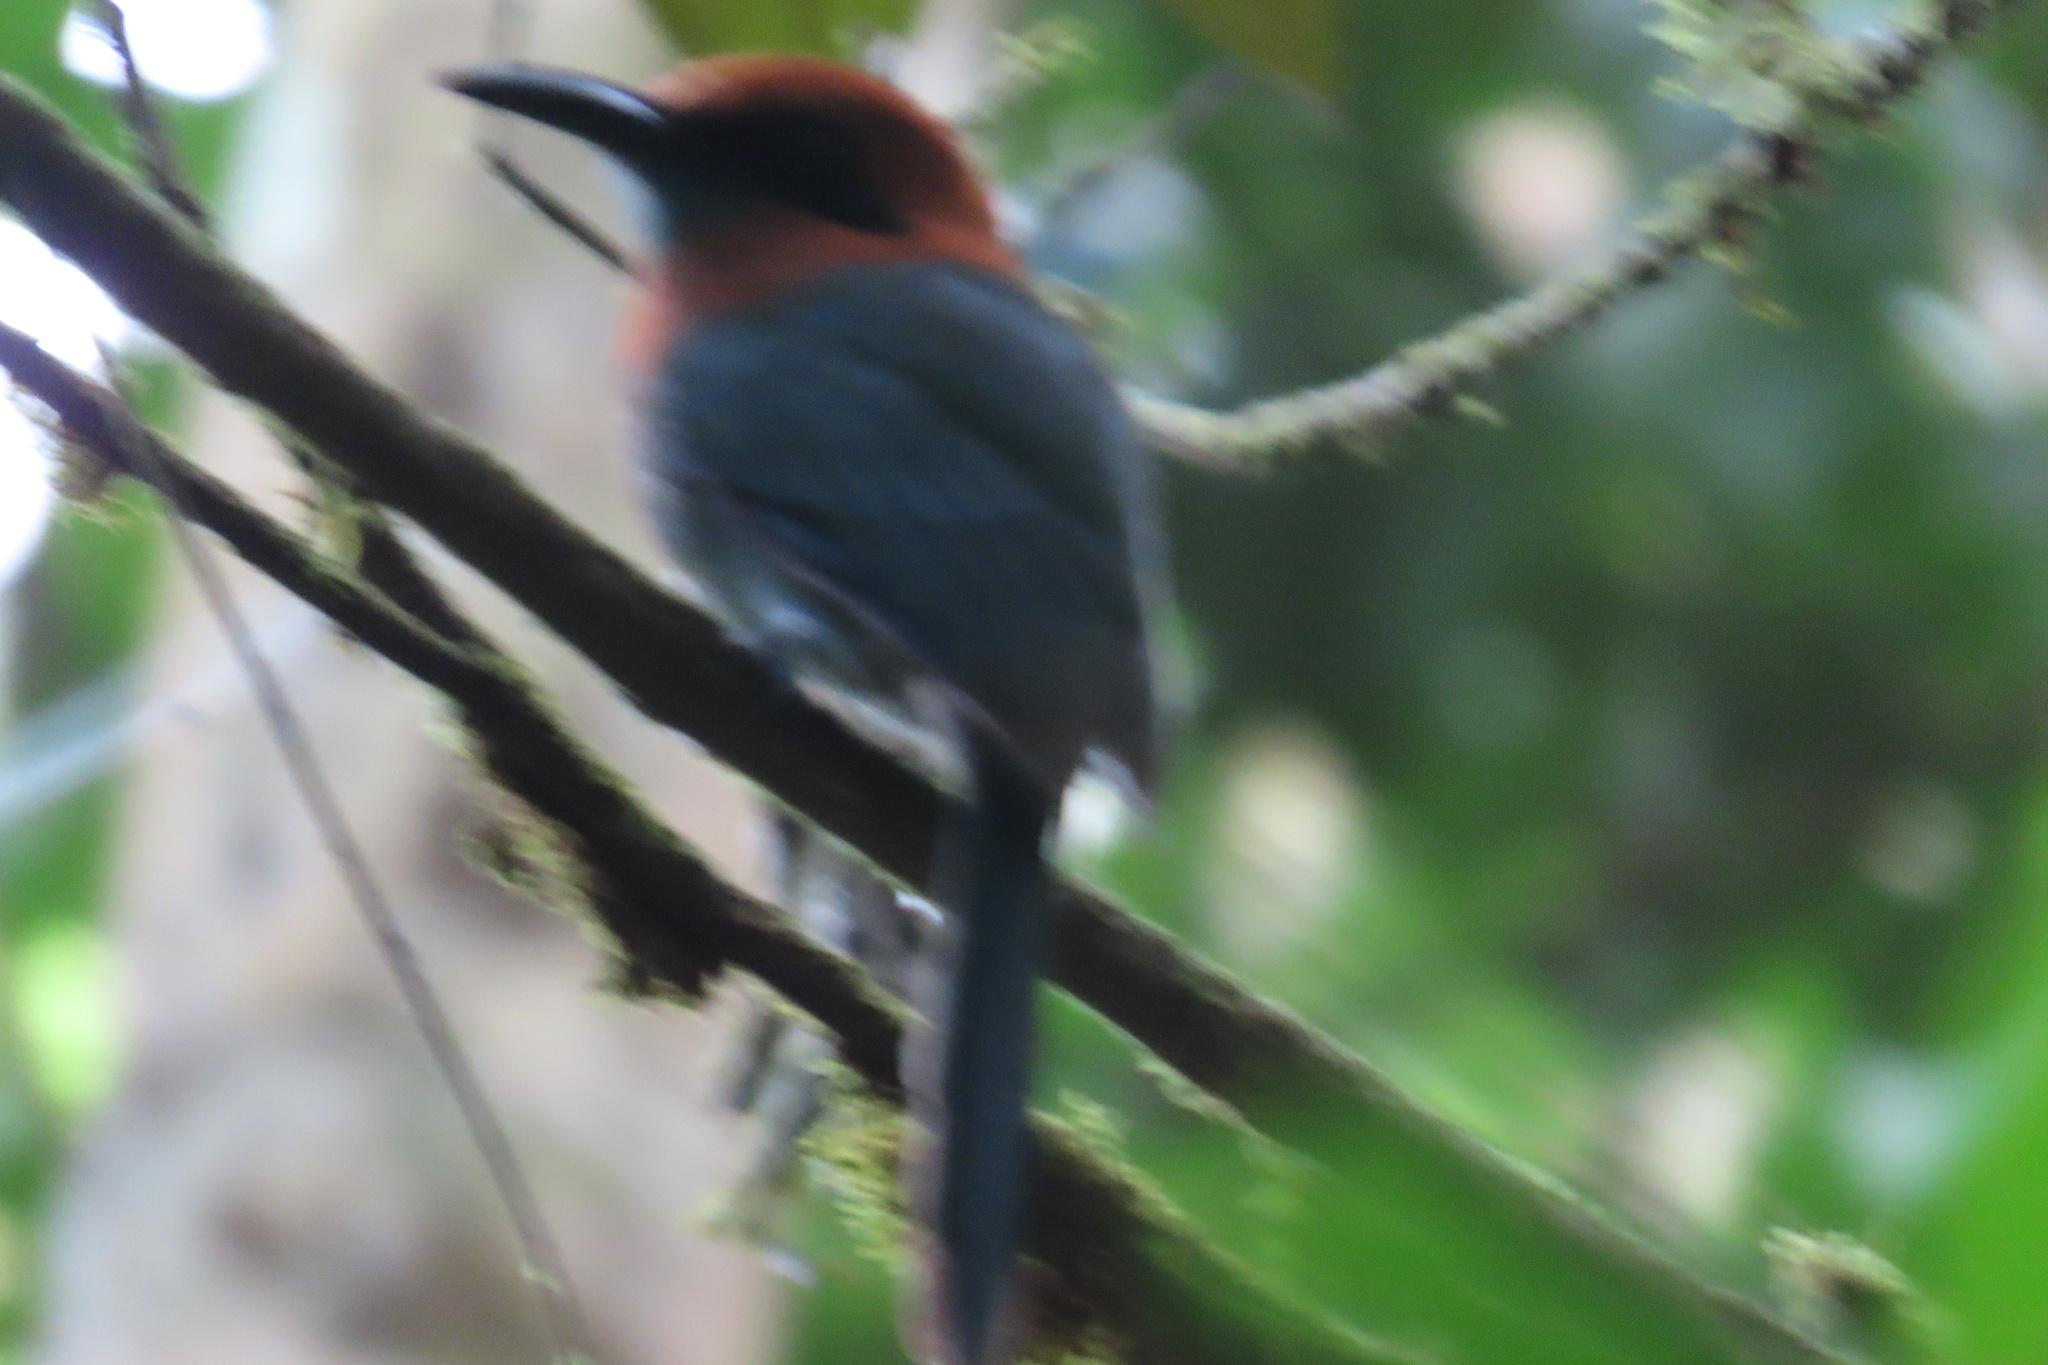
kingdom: Animalia
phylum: Chordata
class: Aves
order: Coraciiformes
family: Momotidae
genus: Electron
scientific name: Electron platyrhynchum
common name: Broad-billed motmot
